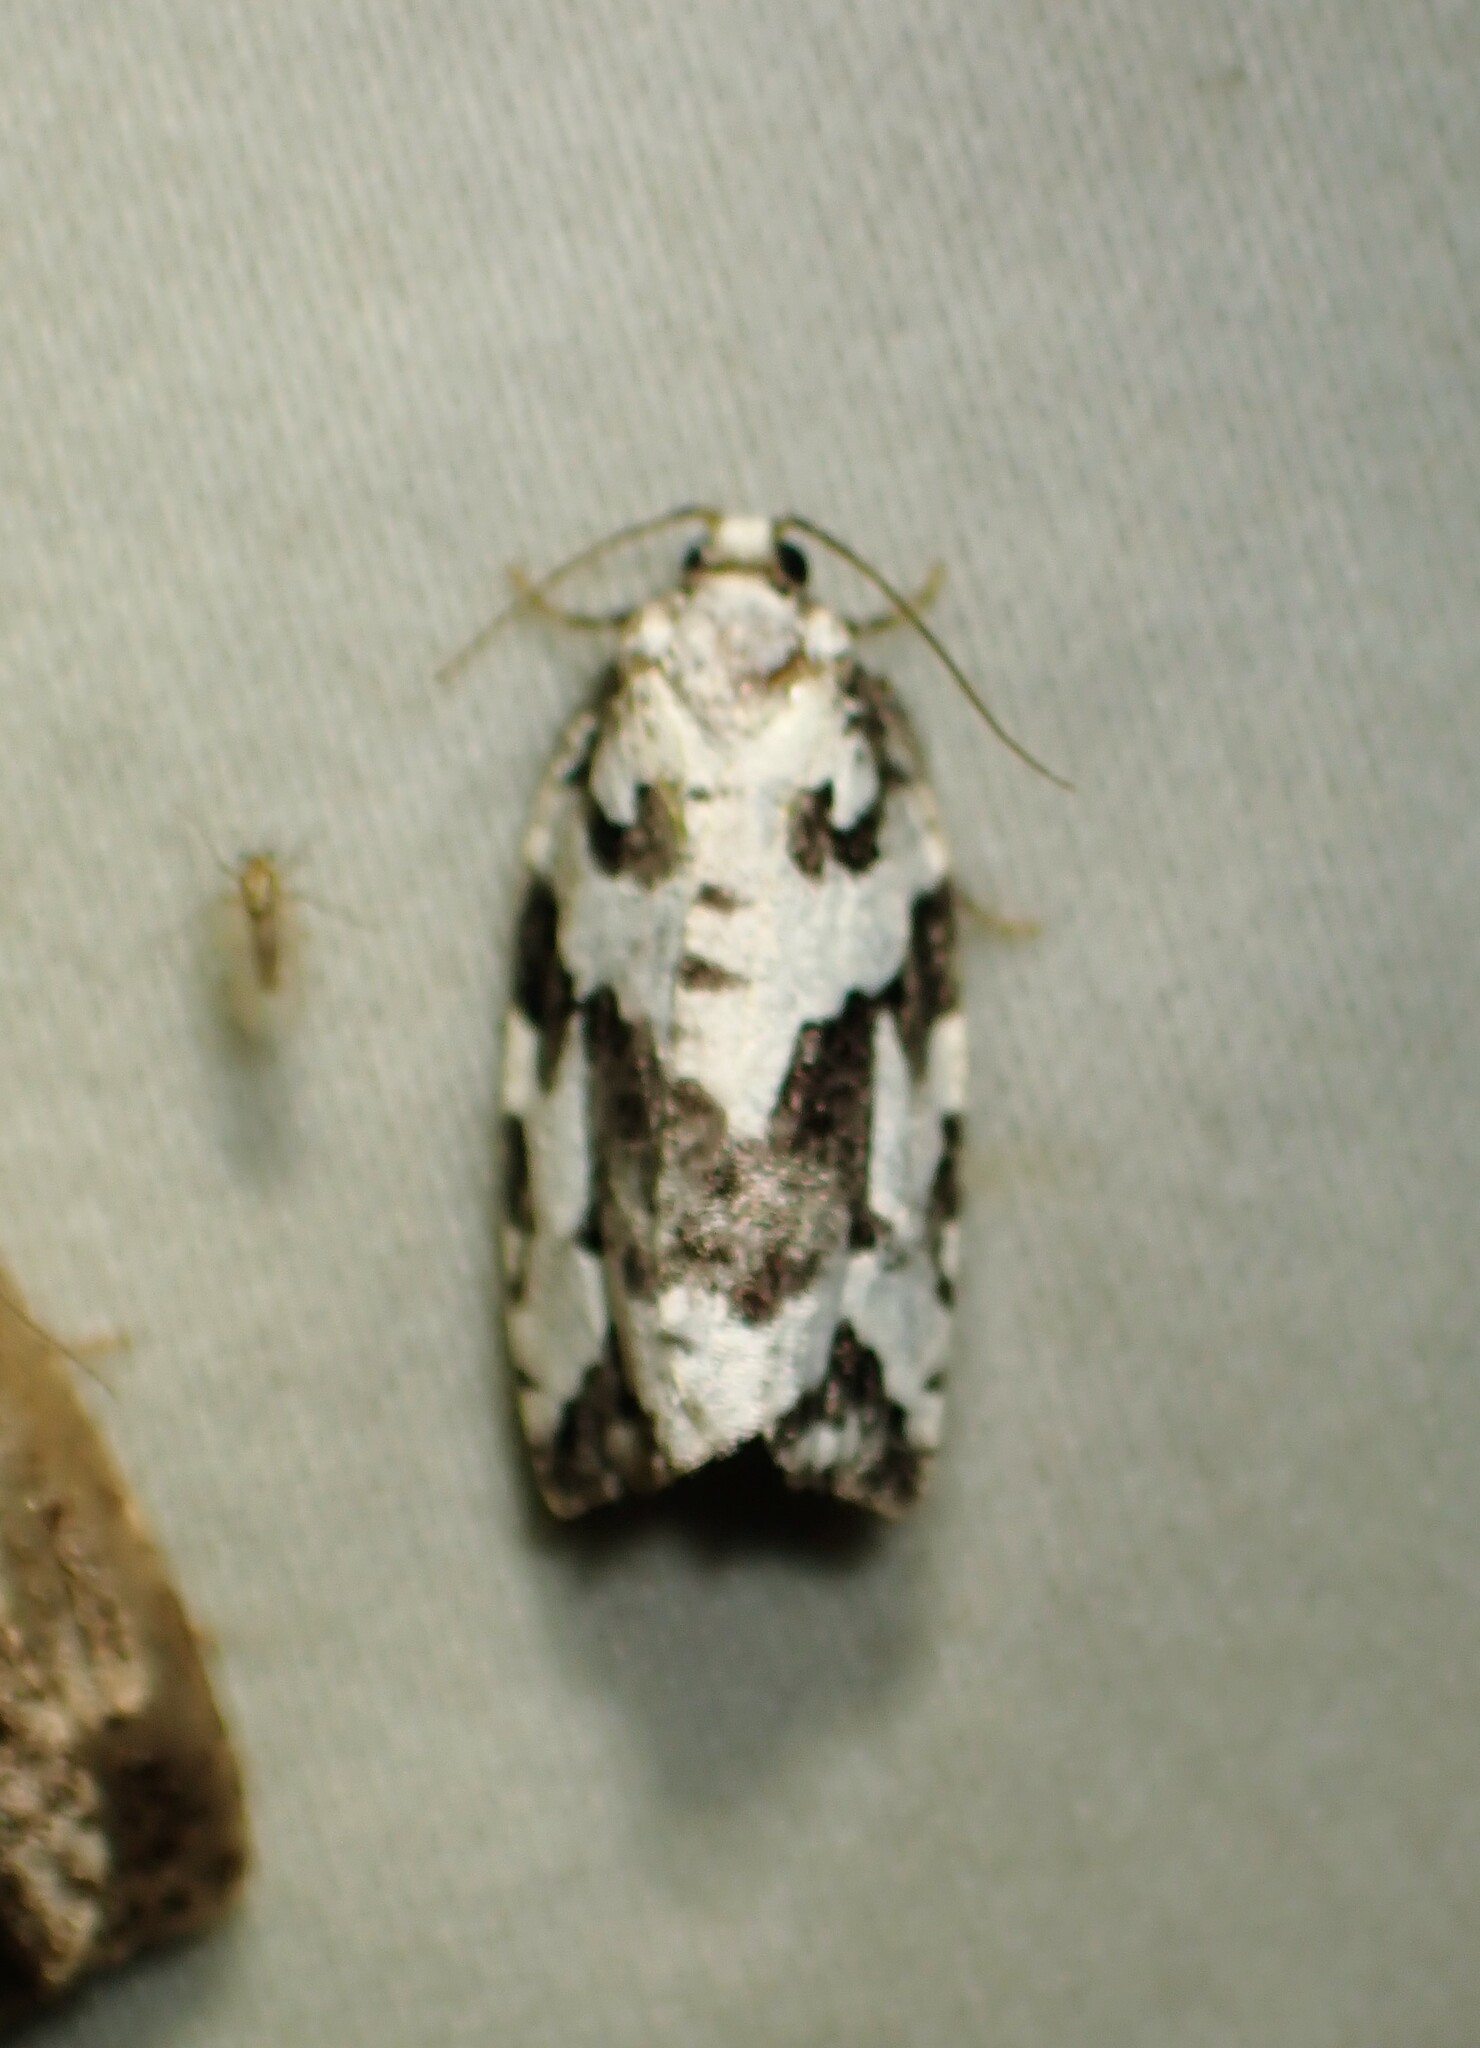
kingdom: Animalia
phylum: Arthropoda
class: Insecta
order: Lepidoptera
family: Tortricidae
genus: Archips
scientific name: Archips dissitana
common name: Boldly-marked archips moth
